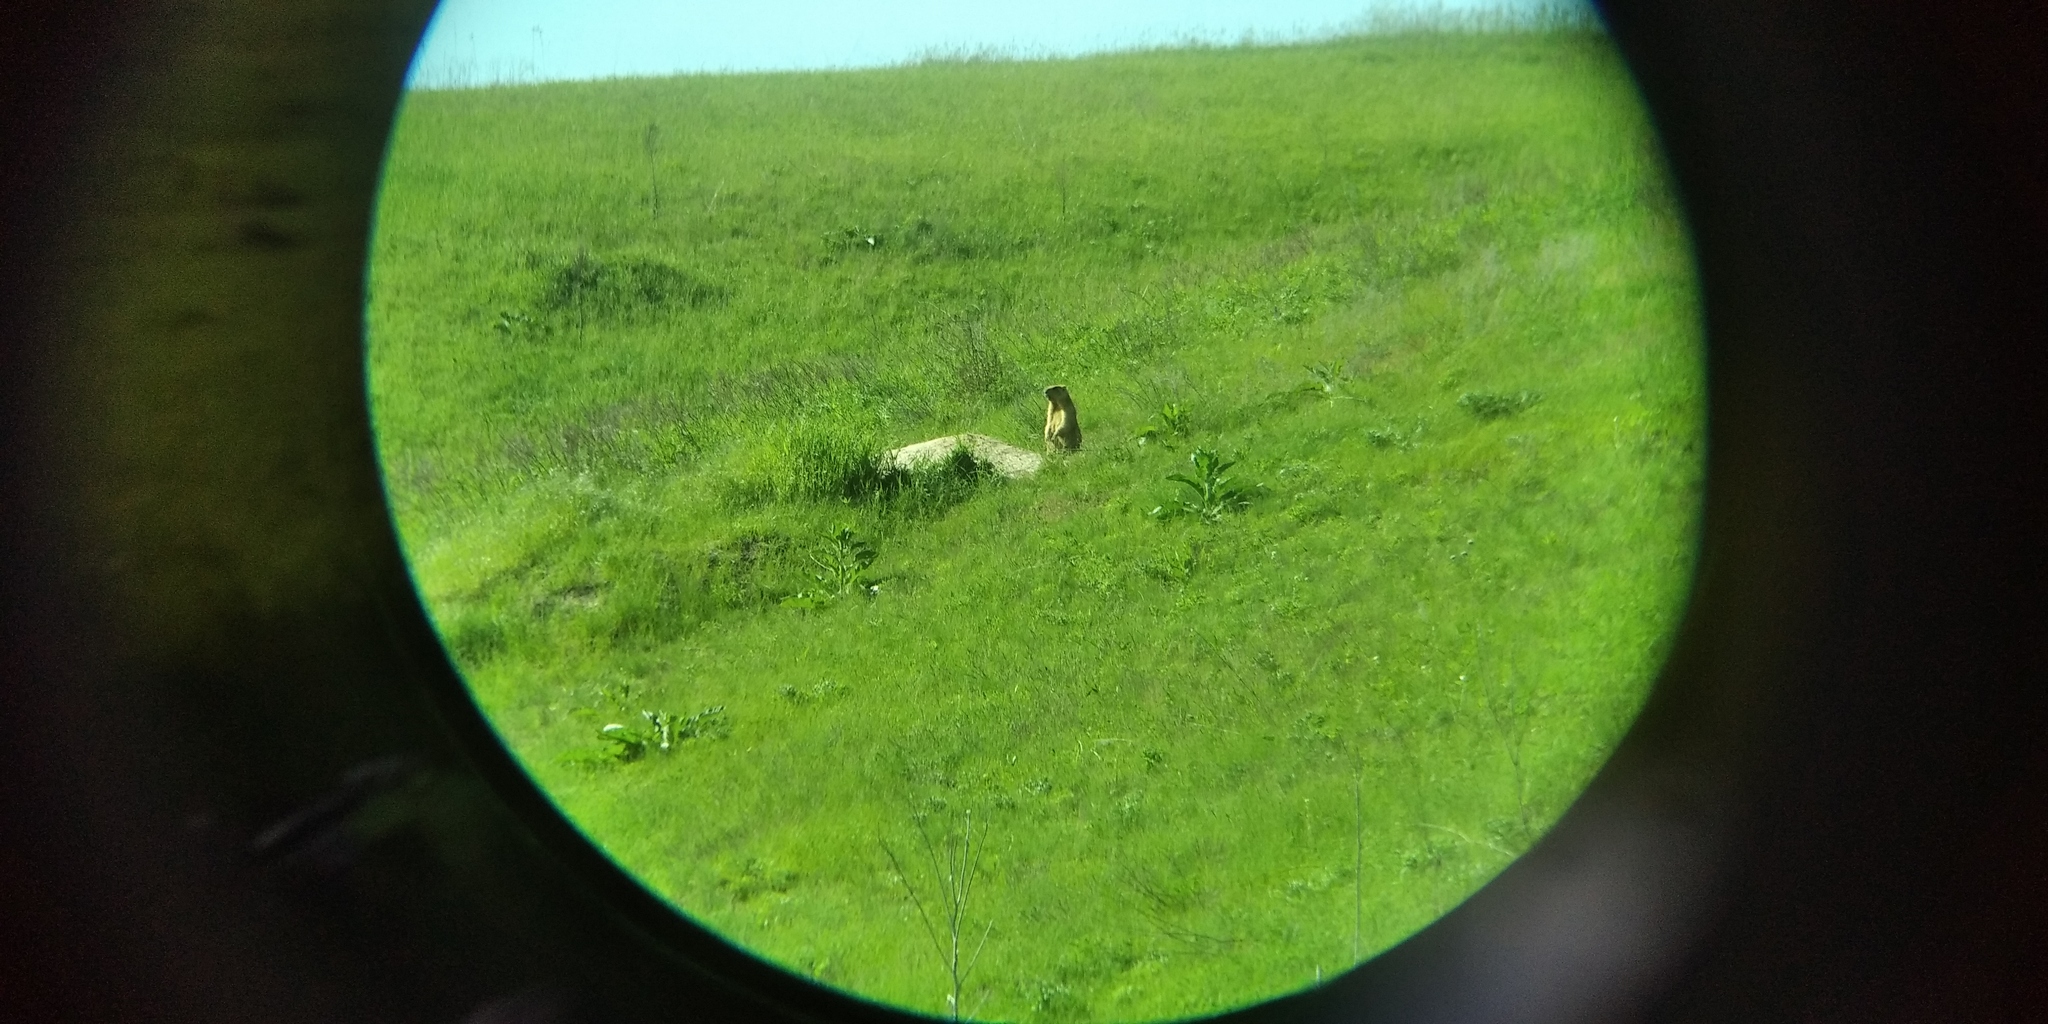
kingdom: Animalia
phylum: Chordata
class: Mammalia
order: Rodentia
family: Sciuridae
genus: Marmota
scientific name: Marmota bobak
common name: Bobak marmot
